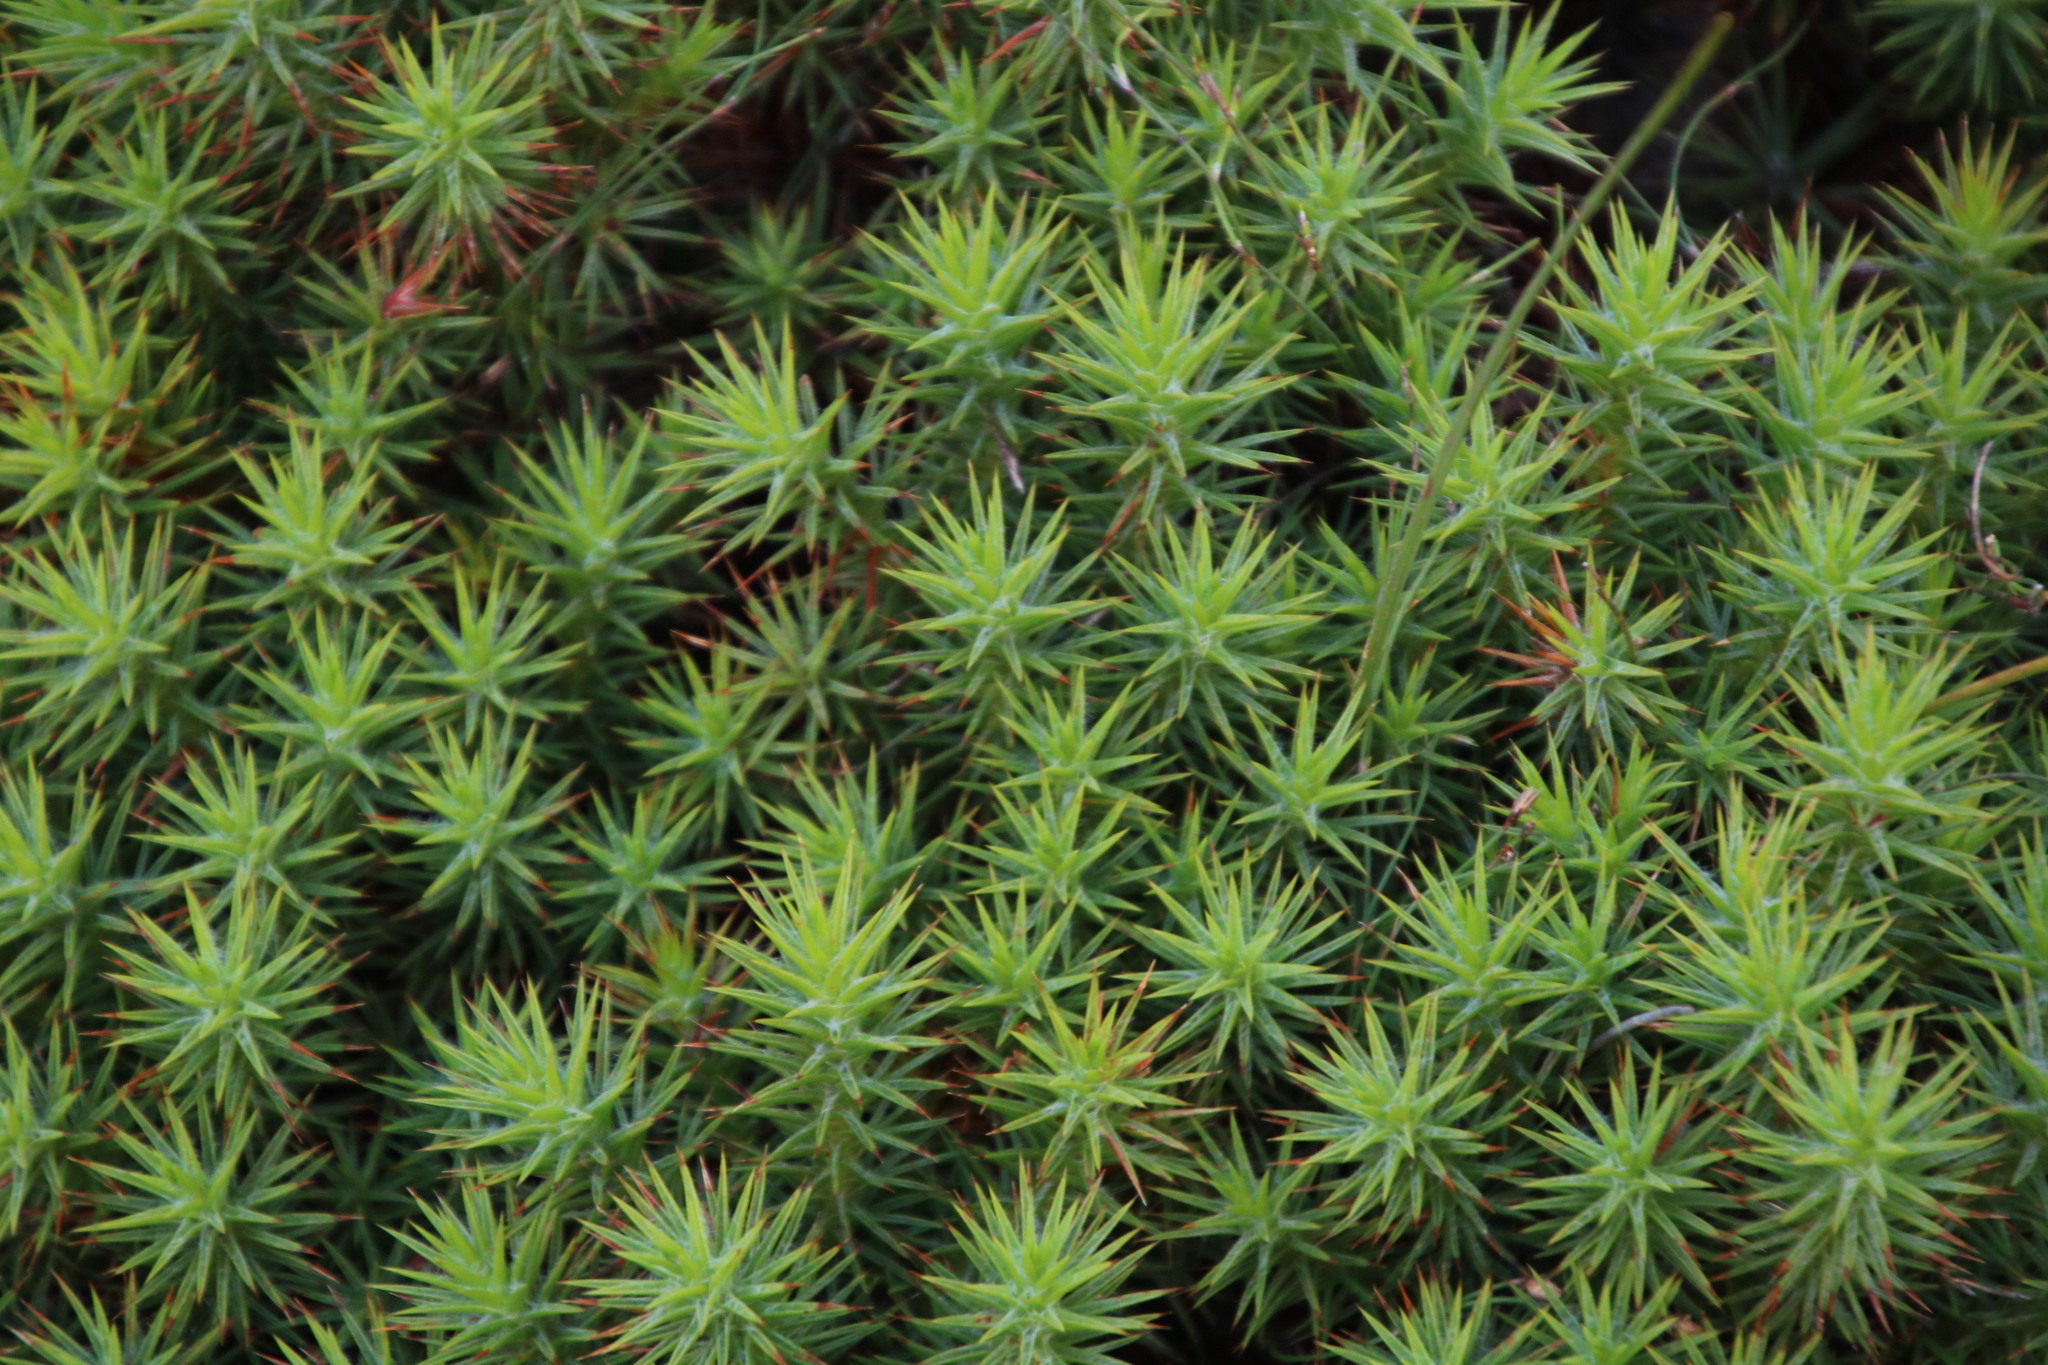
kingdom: Plantae
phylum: Tracheophyta
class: Magnoliopsida
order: Fabales
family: Fabaceae
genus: Aspalathus
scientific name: Aspalathus barbata
